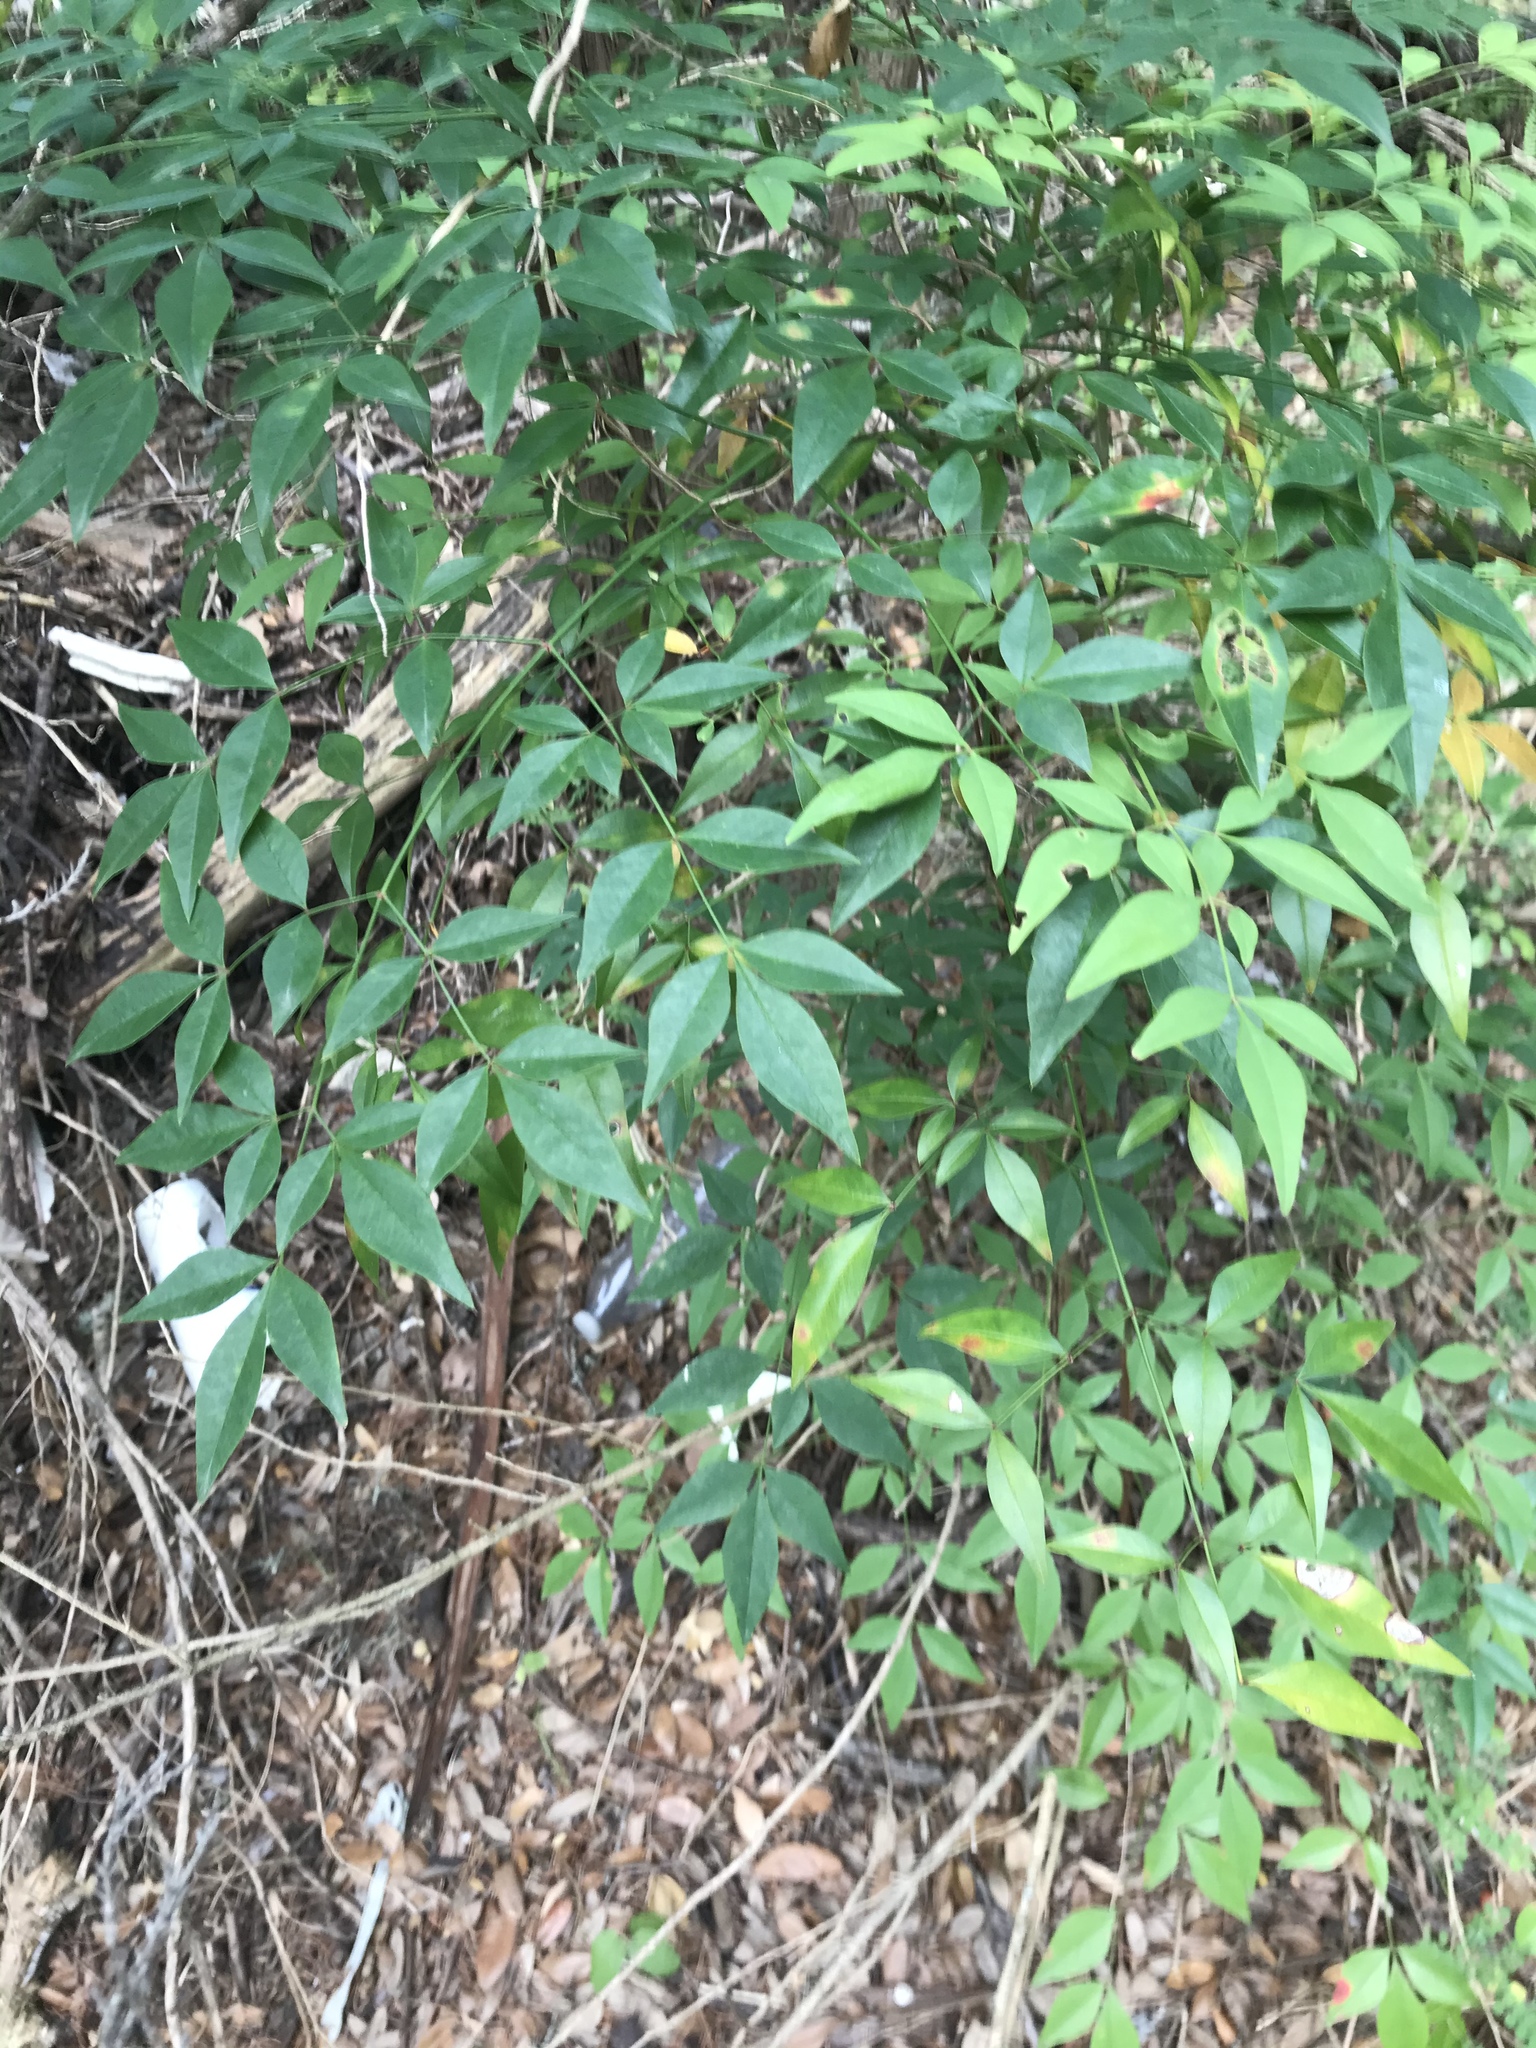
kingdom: Plantae
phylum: Tracheophyta
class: Magnoliopsida
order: Ranunculales
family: Berberidaceae
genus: Nandina
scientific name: Nandina domestica
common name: Sacred bamboo
